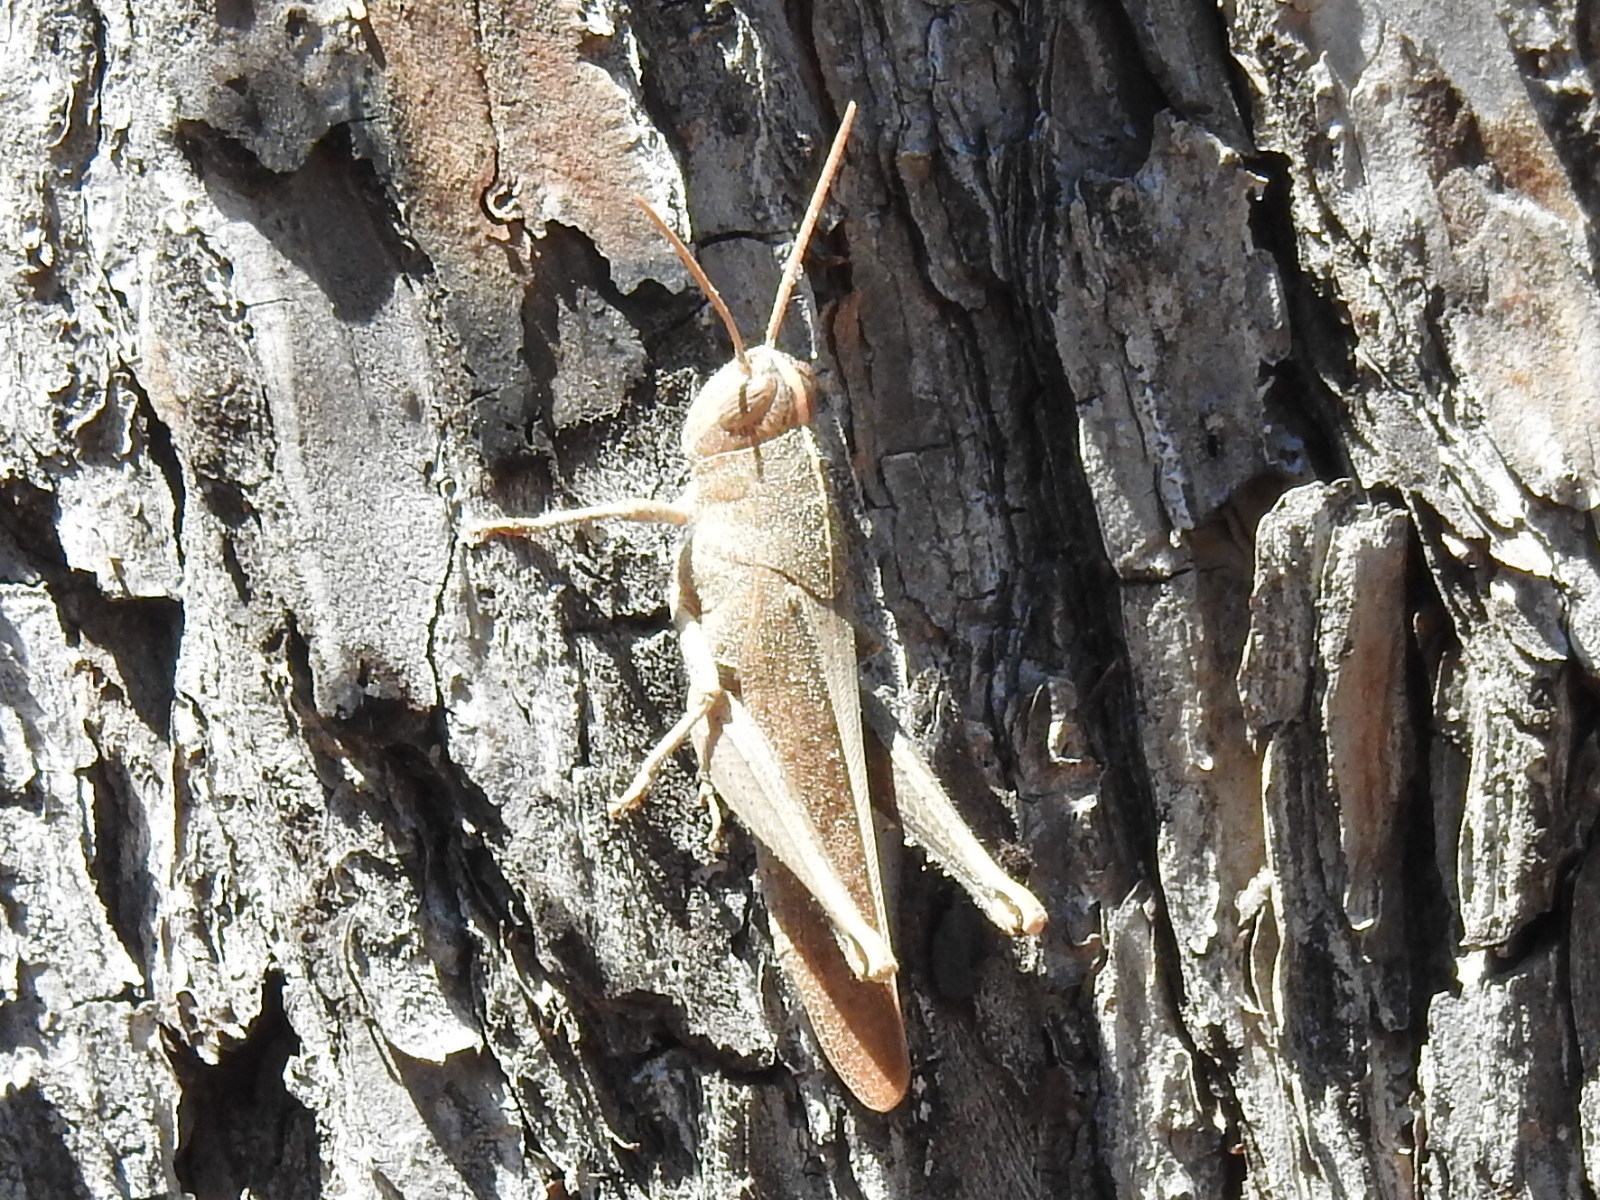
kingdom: Animalia
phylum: Arthropoda
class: Insecta
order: Orthoptera
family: Acrididae
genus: Schistocerca
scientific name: Schistocerca damnifica
